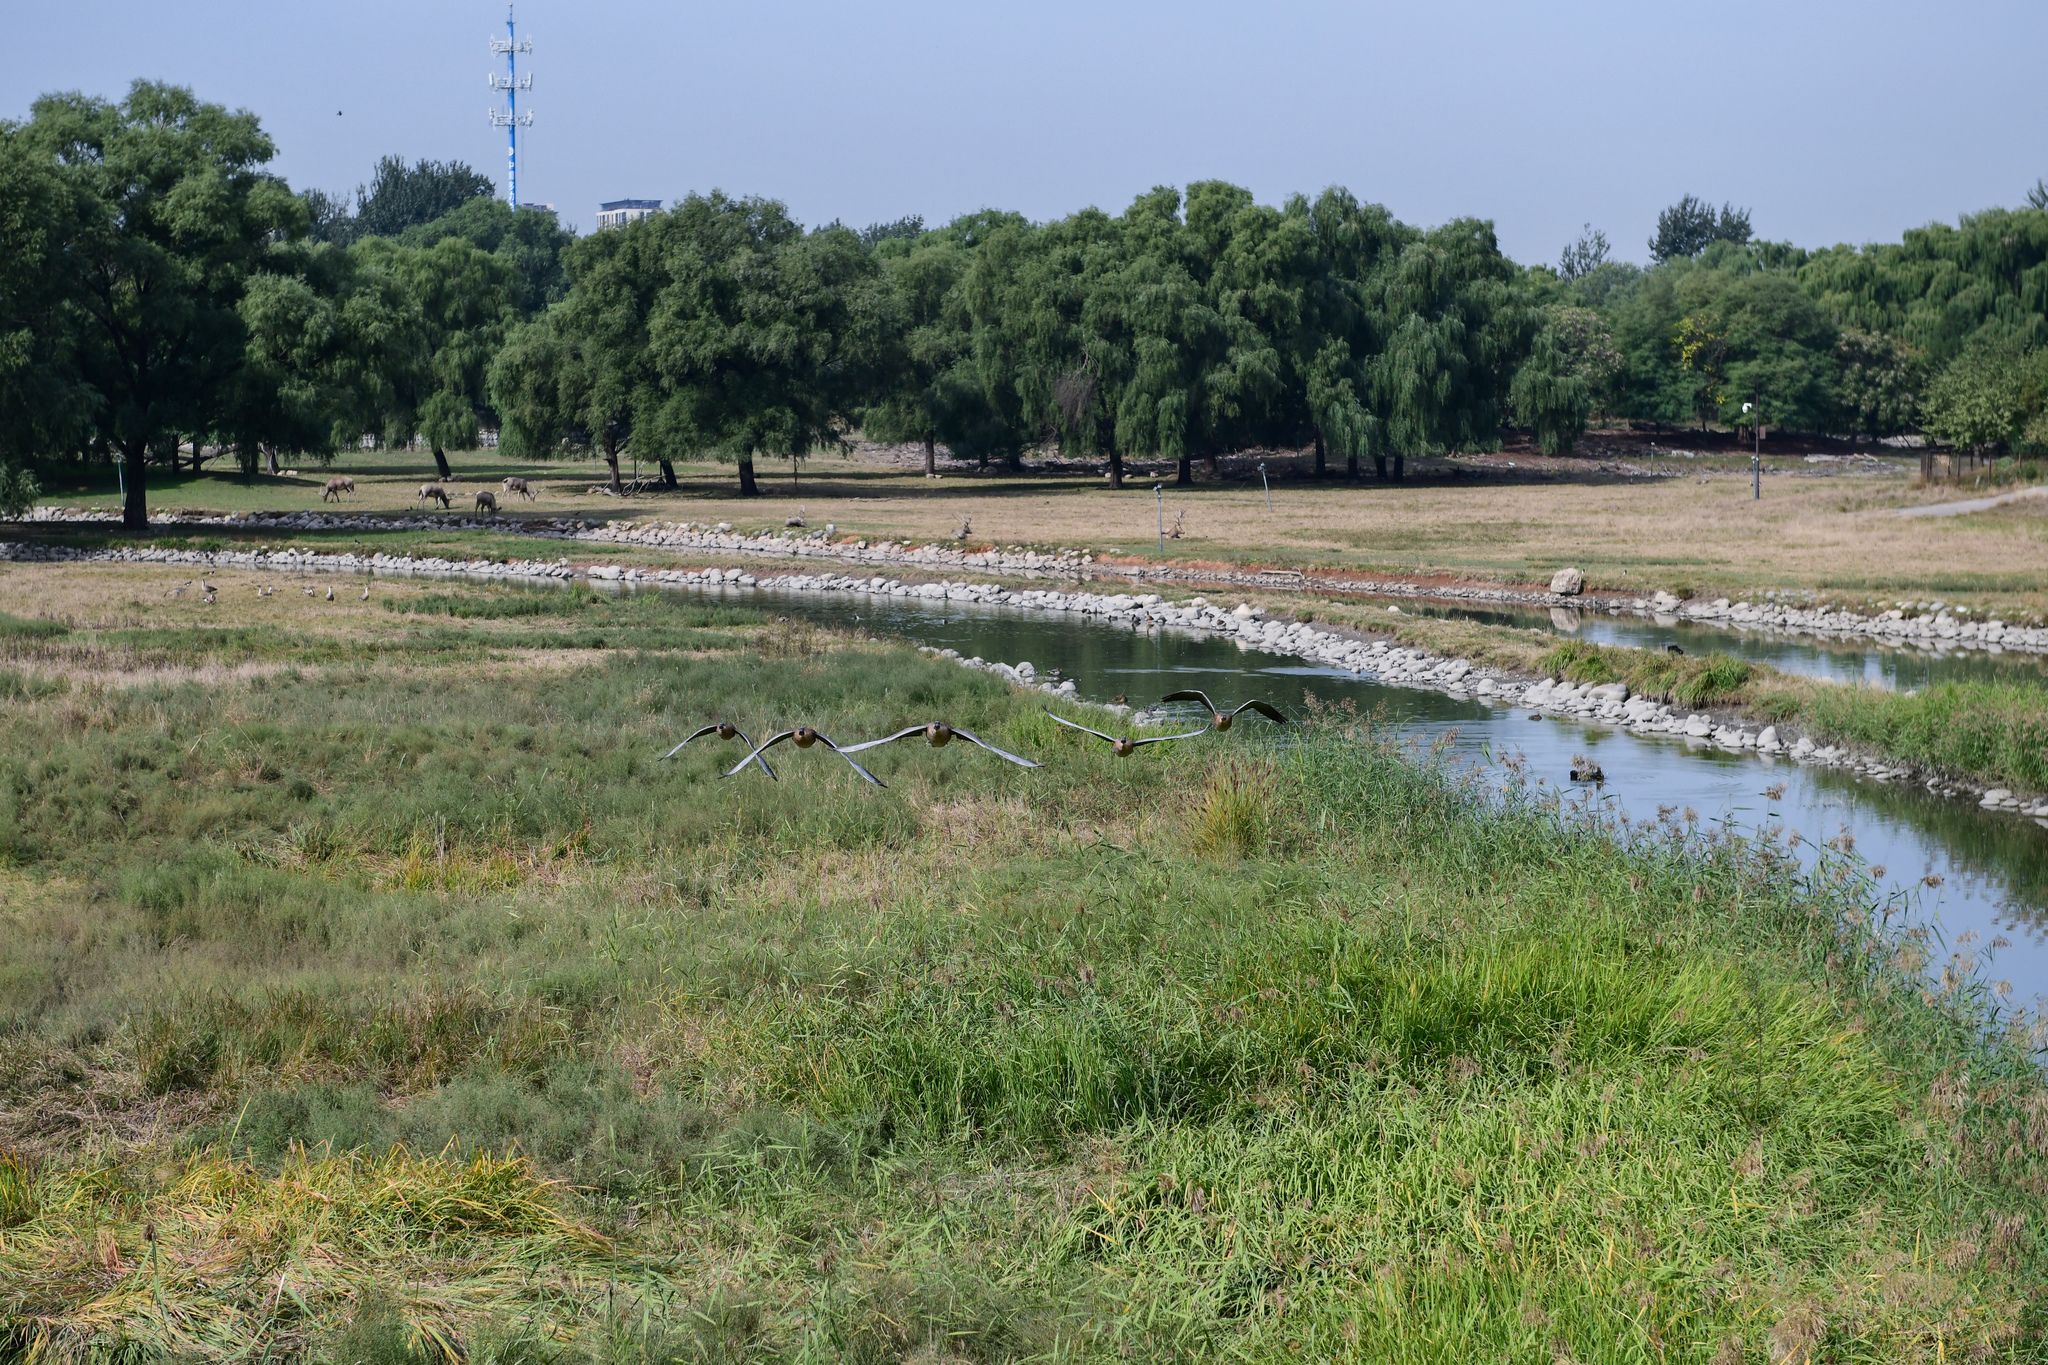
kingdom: Animalia
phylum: Chordata
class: Aves
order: Anseriformes
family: Anatidae
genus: Anser
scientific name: Anser cygnoides
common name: Swan goose
